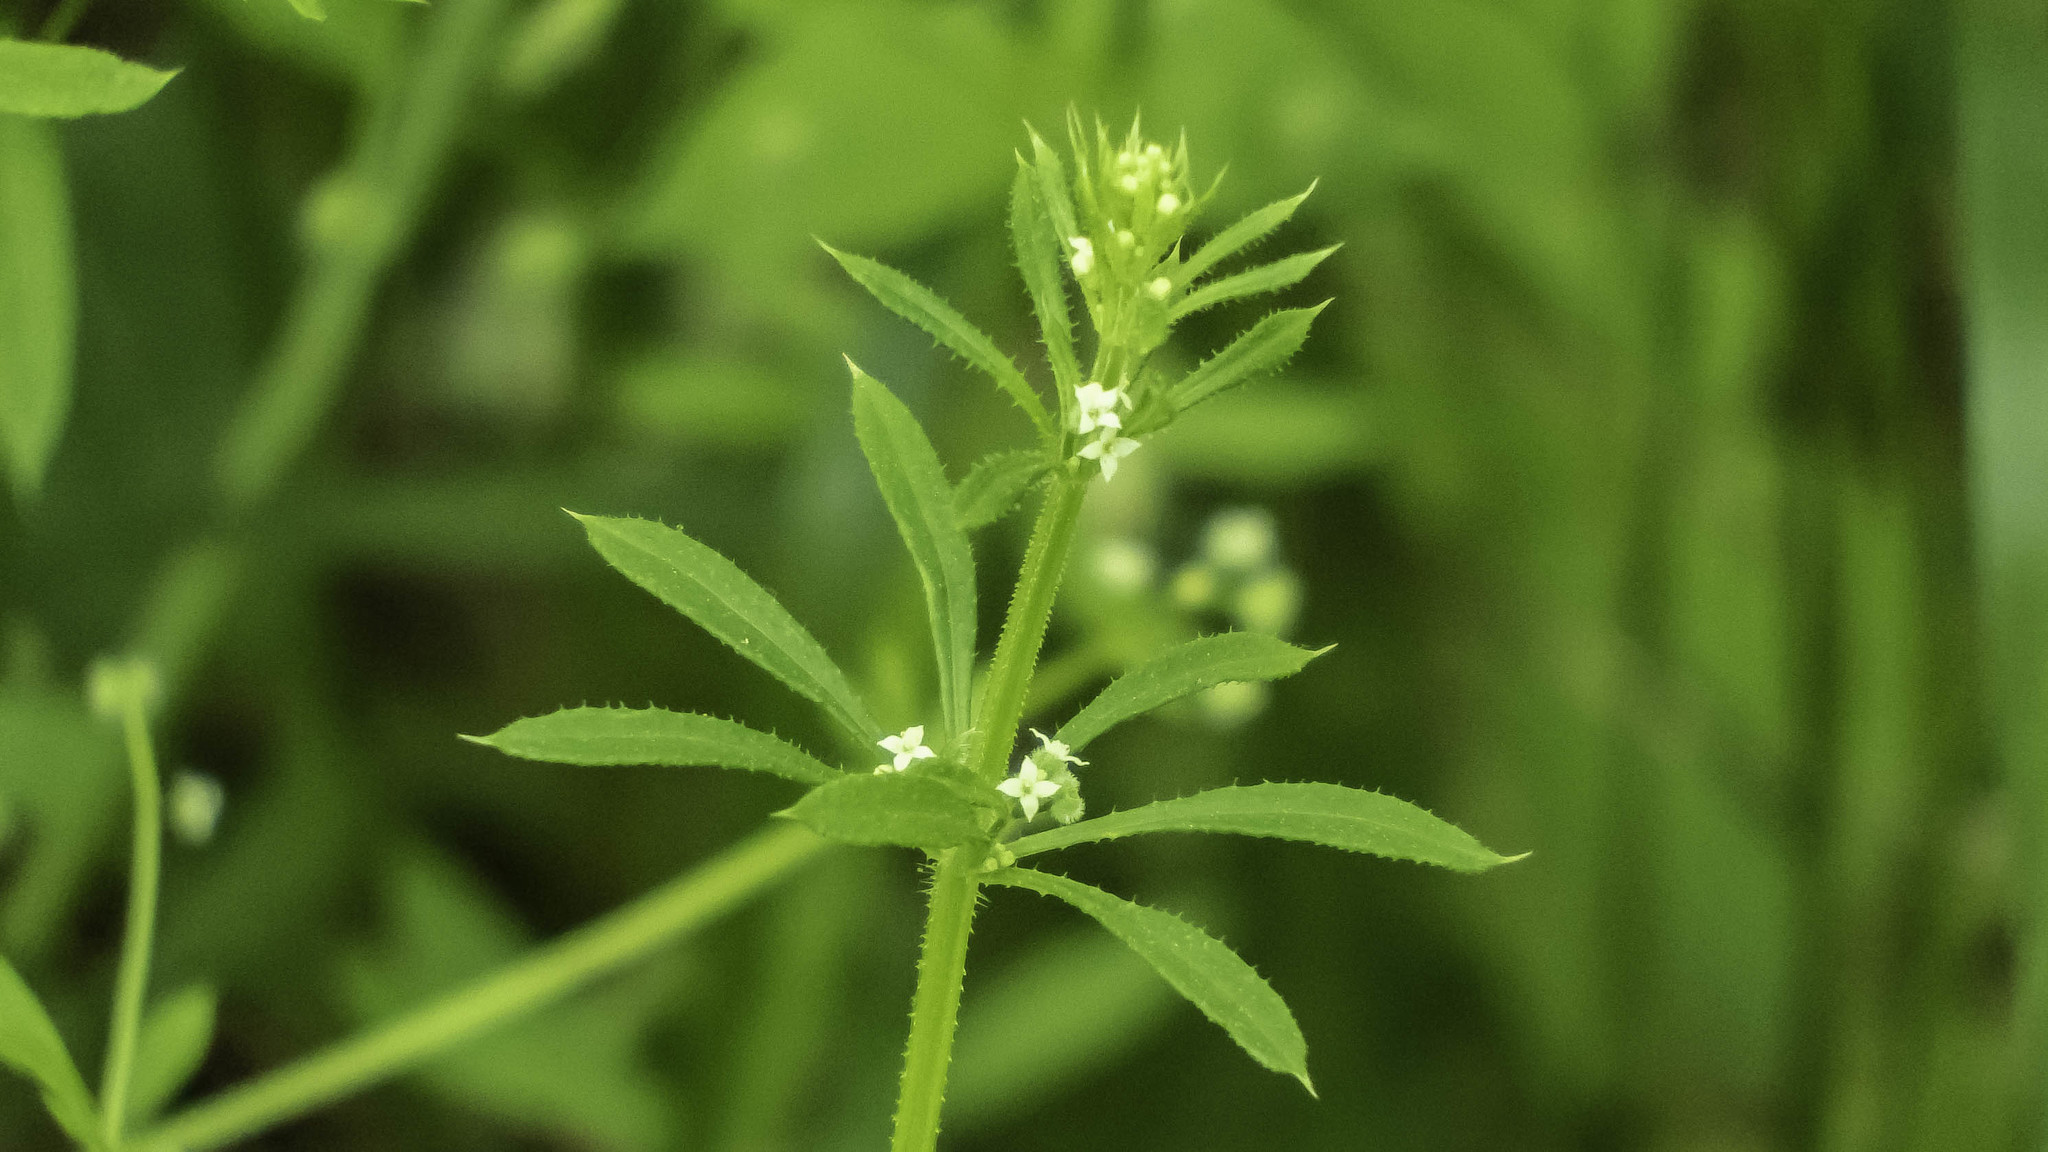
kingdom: Plantae
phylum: Tracheophyta
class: Magnoliopsida
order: Gentianales
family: Rubiaceae
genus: Galium
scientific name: Galium aparine
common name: Cleavers
